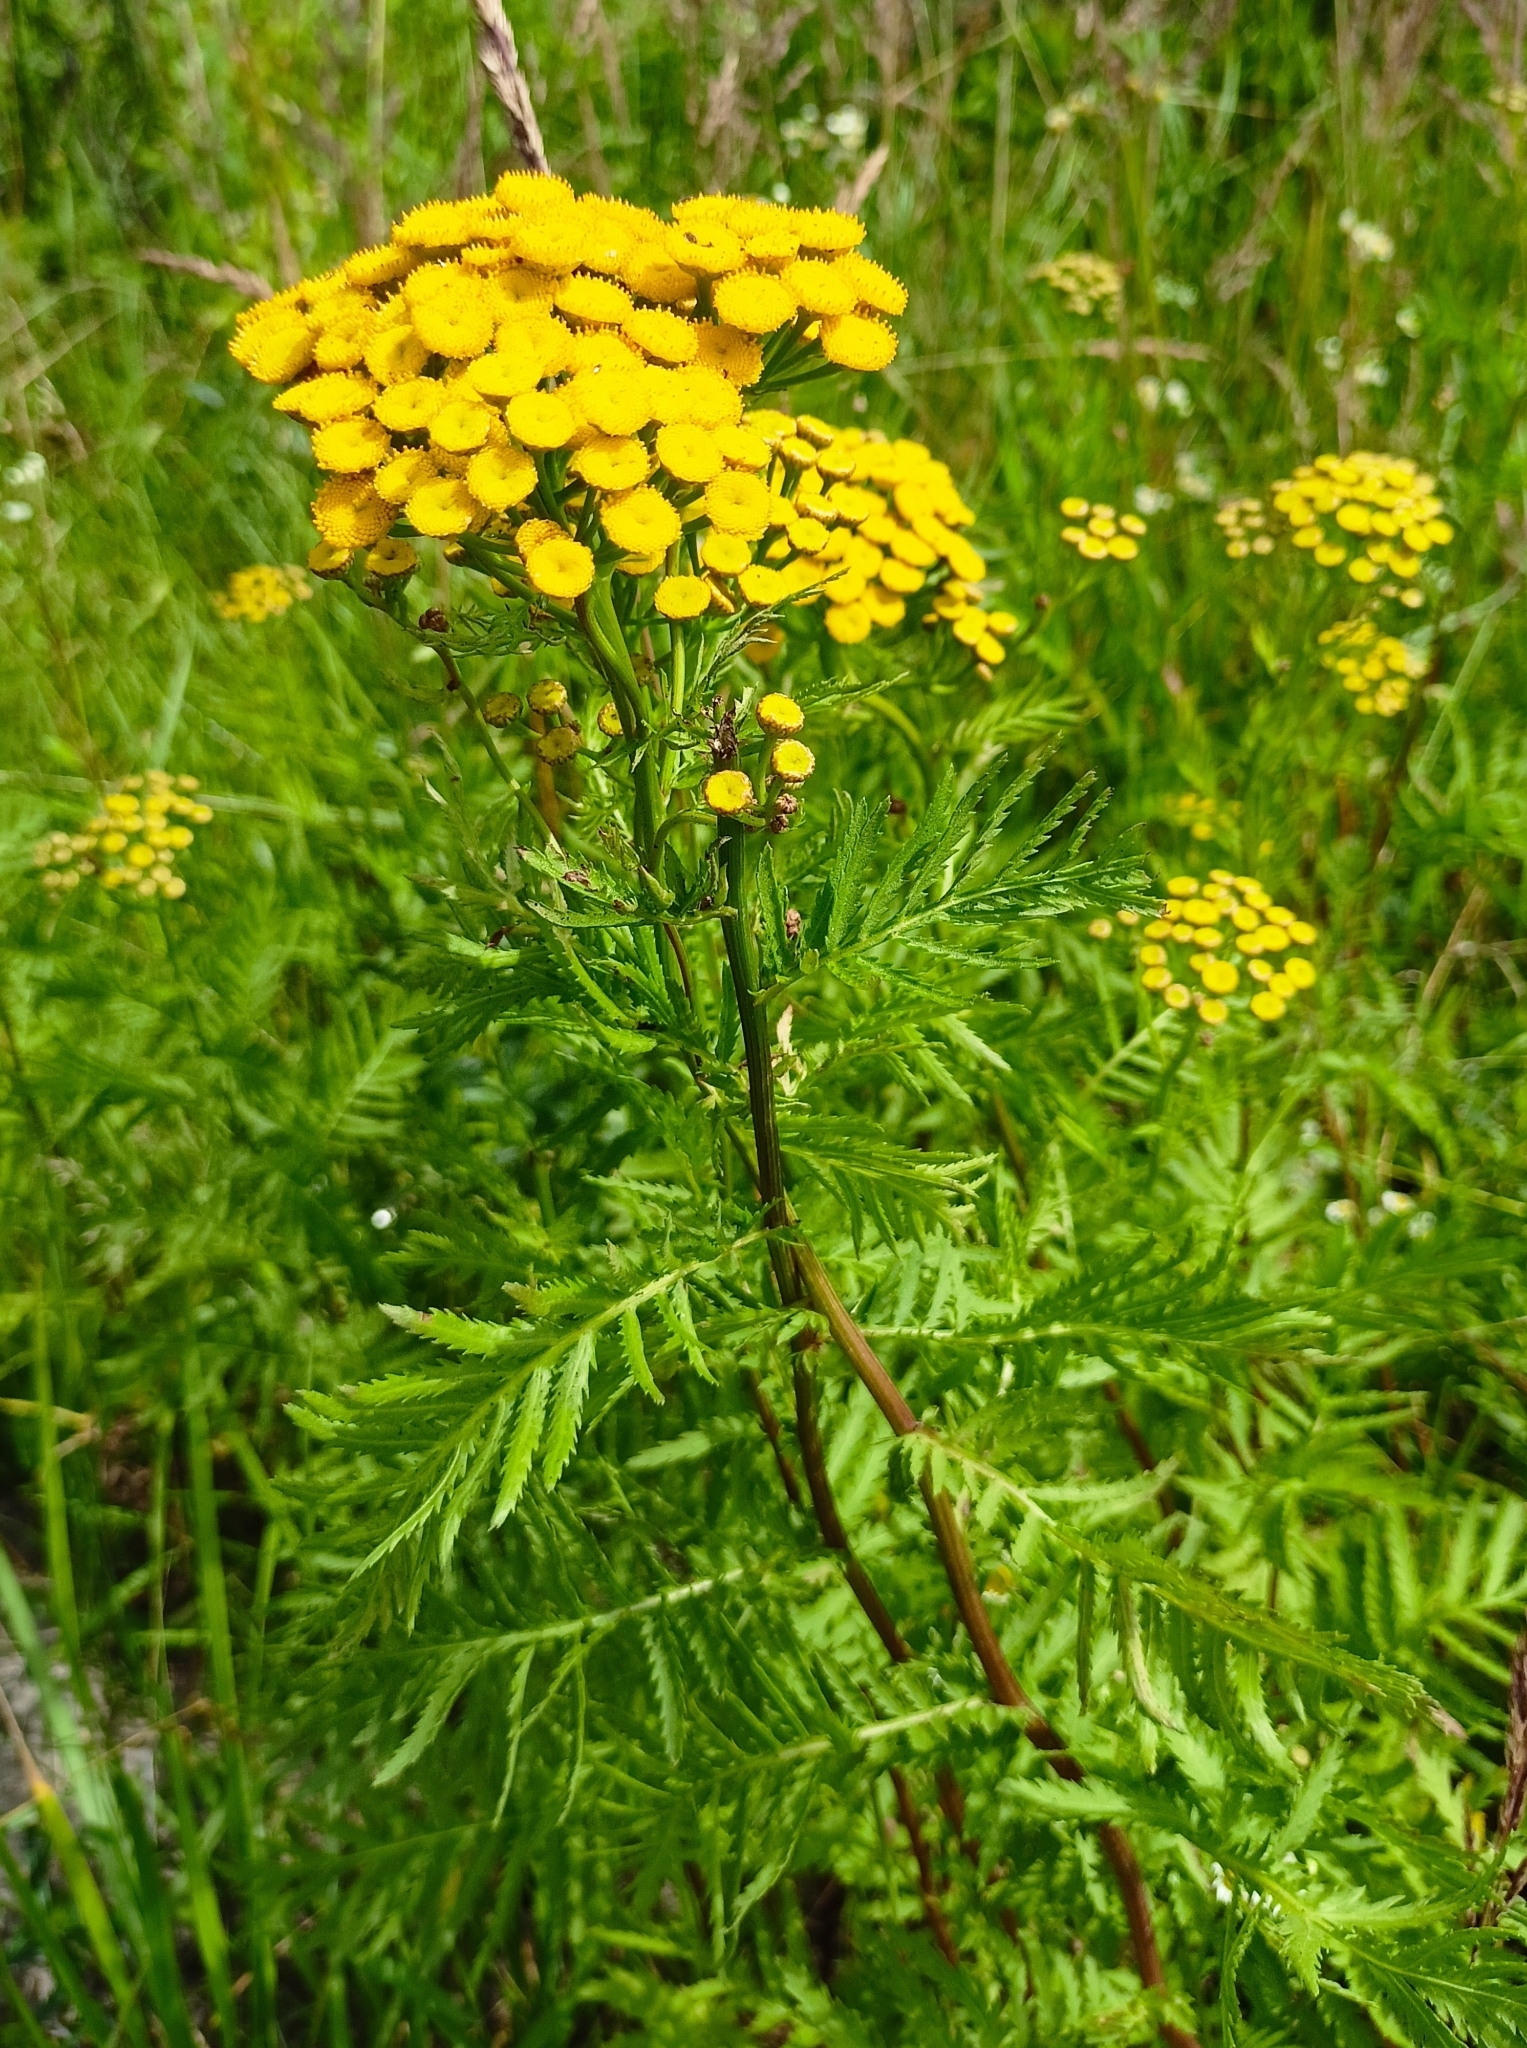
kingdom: Plantae
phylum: Tracheophyta
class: Magnoliopsida
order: Asterales
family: Asteraceae
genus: Tanacetum
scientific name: Tanacetum vulgare
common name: Common tansy
